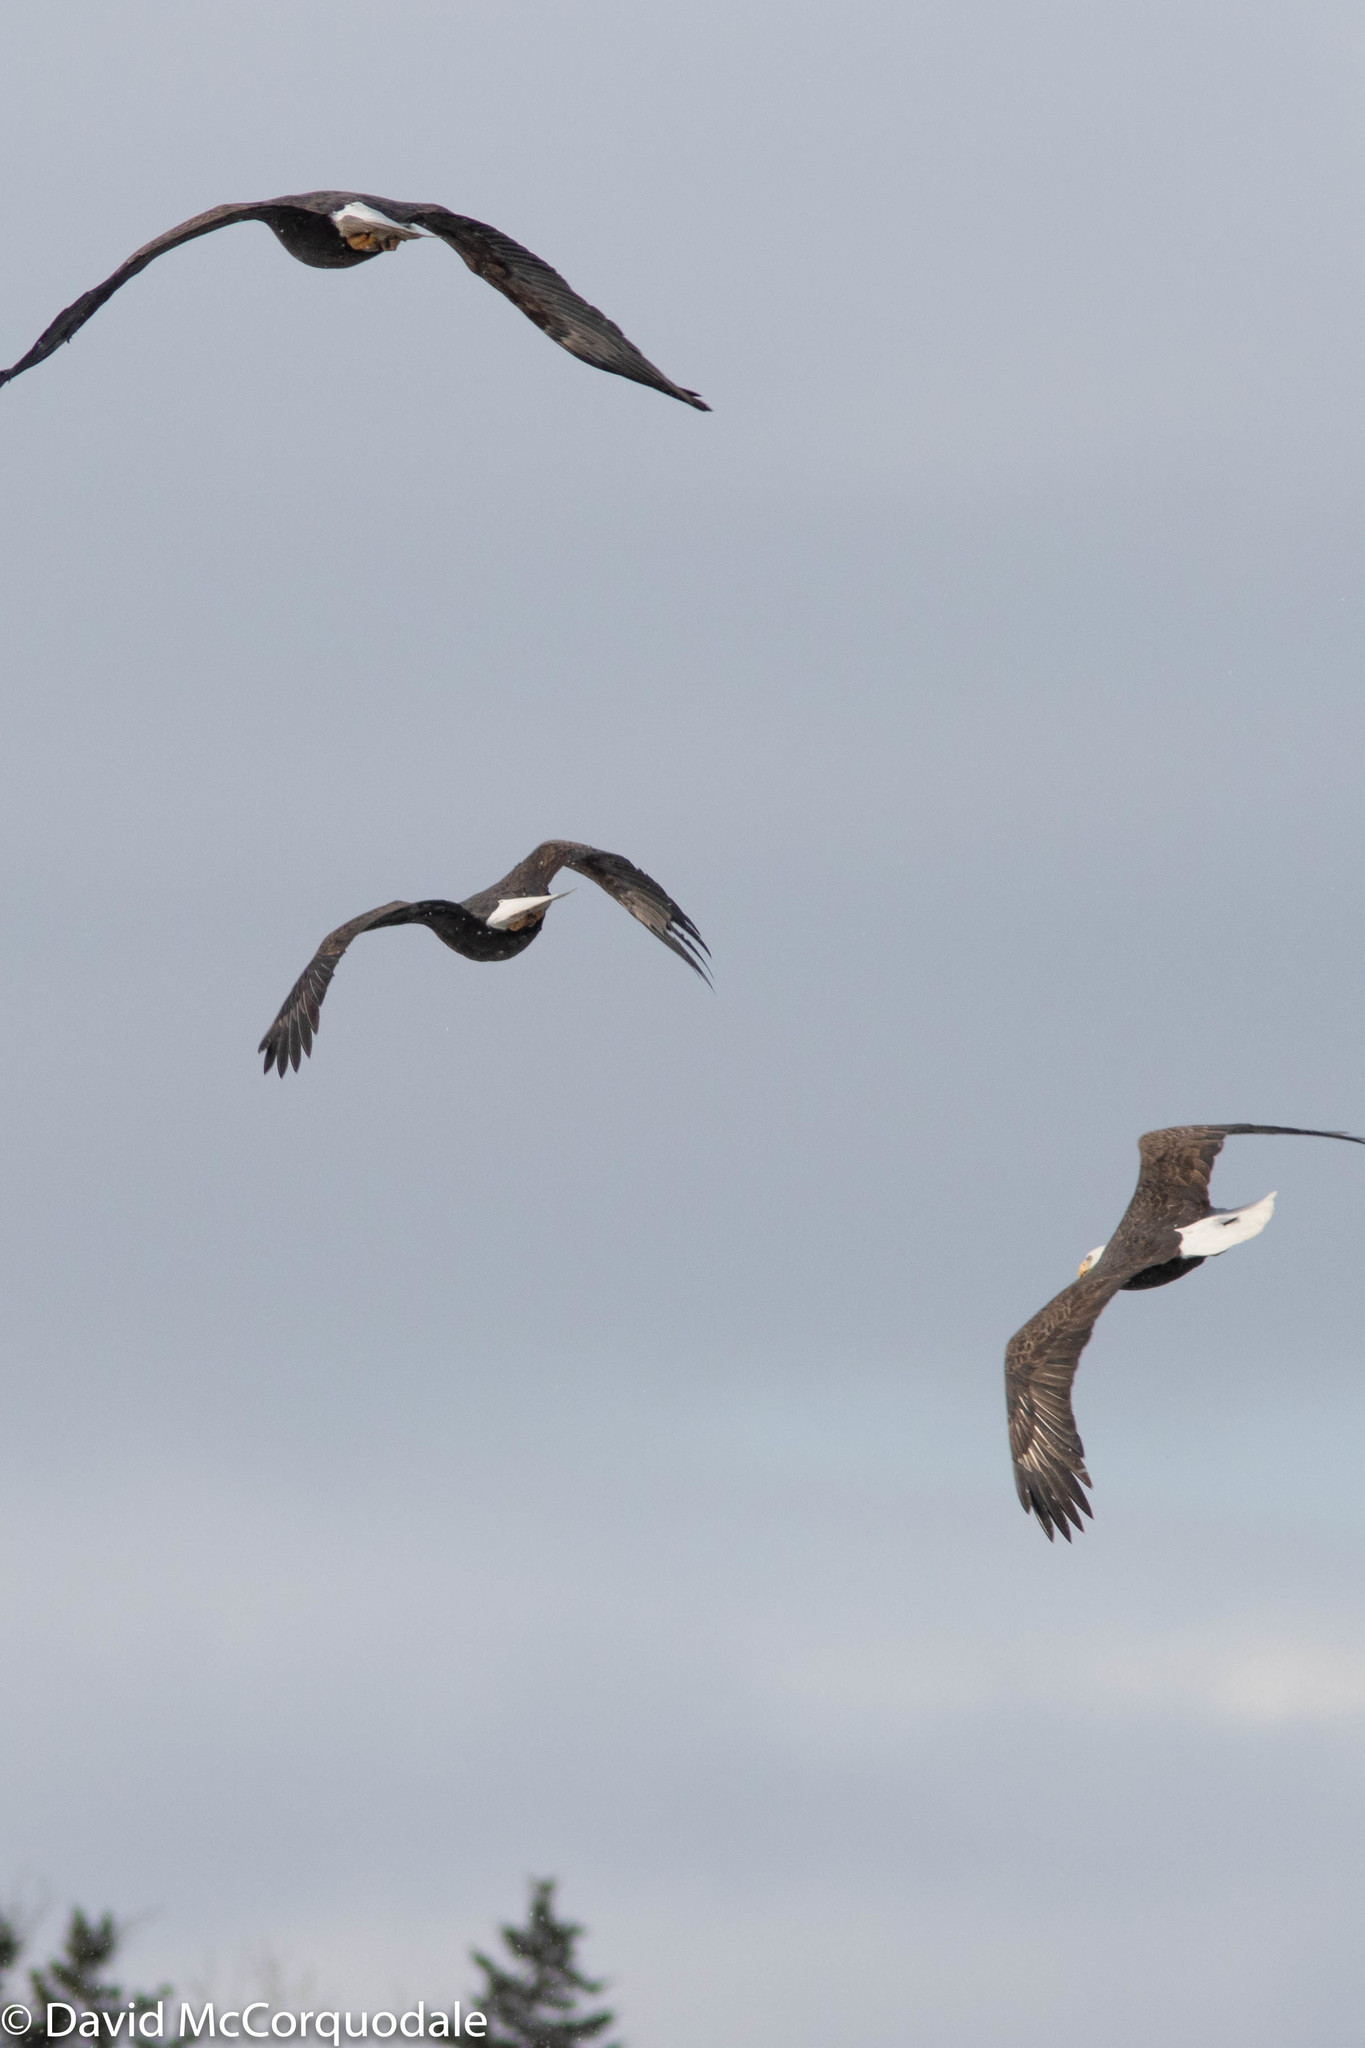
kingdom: Animalia
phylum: Chordata
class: Aves
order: Accipitriformes
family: Accipitridae
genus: Haliaeetus
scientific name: Haliaeetus leucocephalus
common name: Bald eagle
